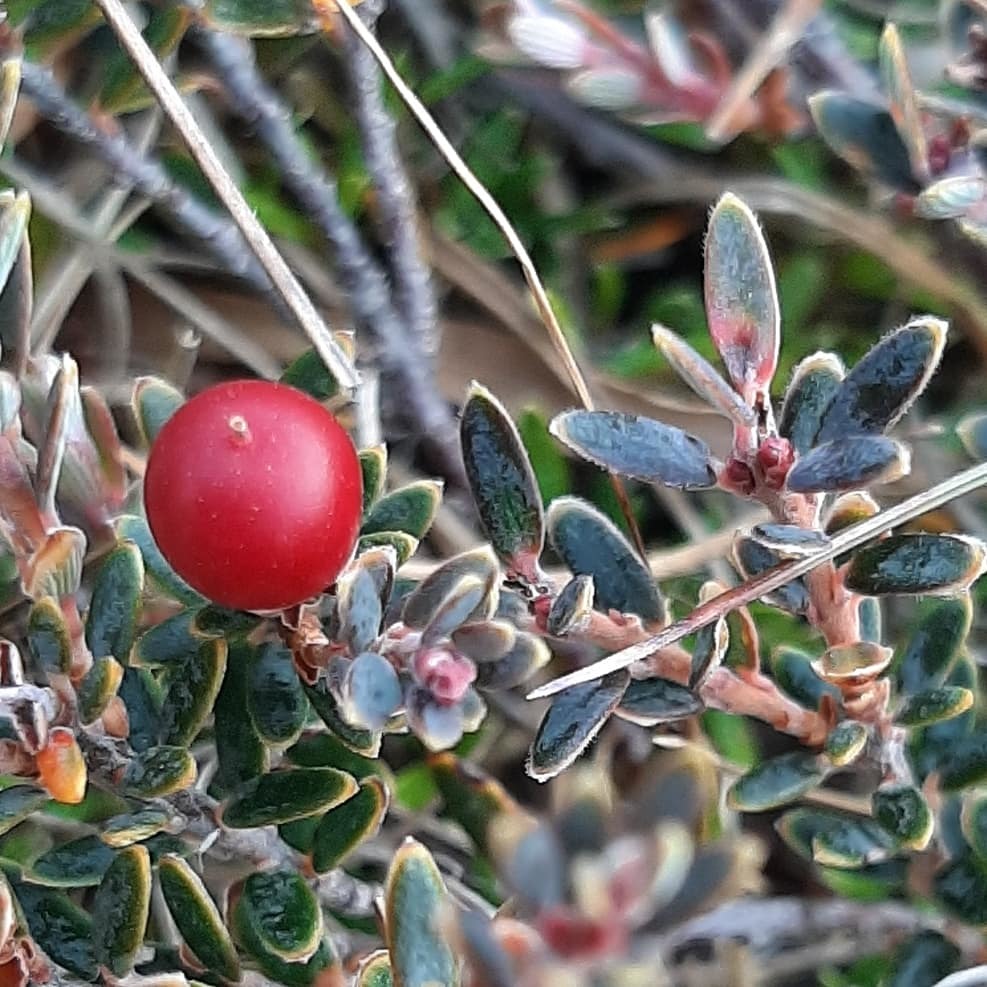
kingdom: Plantae
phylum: Tracheophyta
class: Magnoliopsida
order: Ericales
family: Ericaceae
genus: Acrothamnus
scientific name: Acrothamnus colensoi
